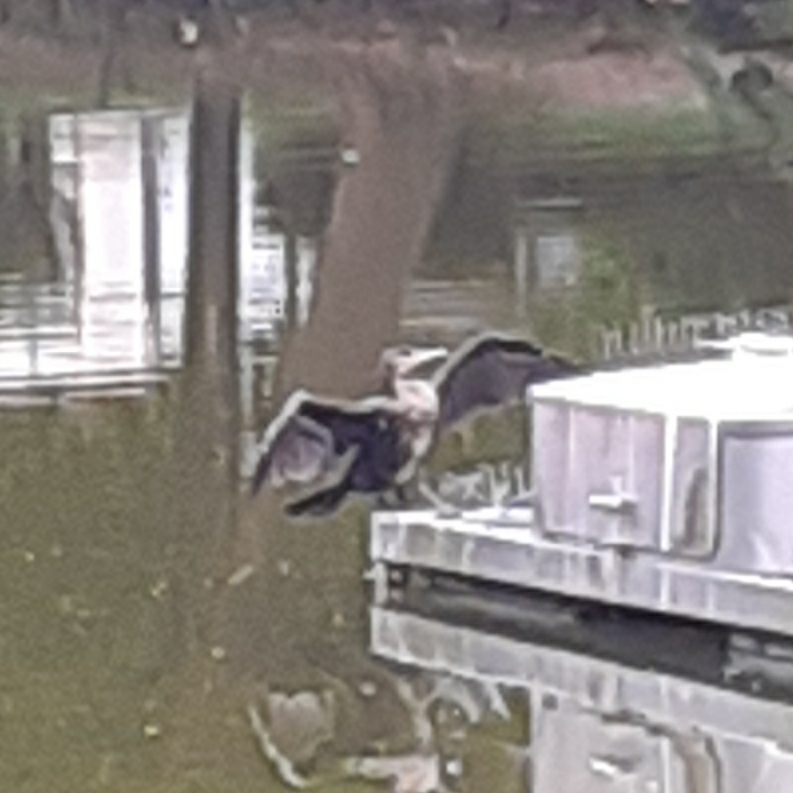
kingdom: Animalia
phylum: Chordata
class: Aves
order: Suliformes
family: Phalacrocoracidae
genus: Phalacrocorax
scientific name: Phalacrocorax carbo
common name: Great cormorant
